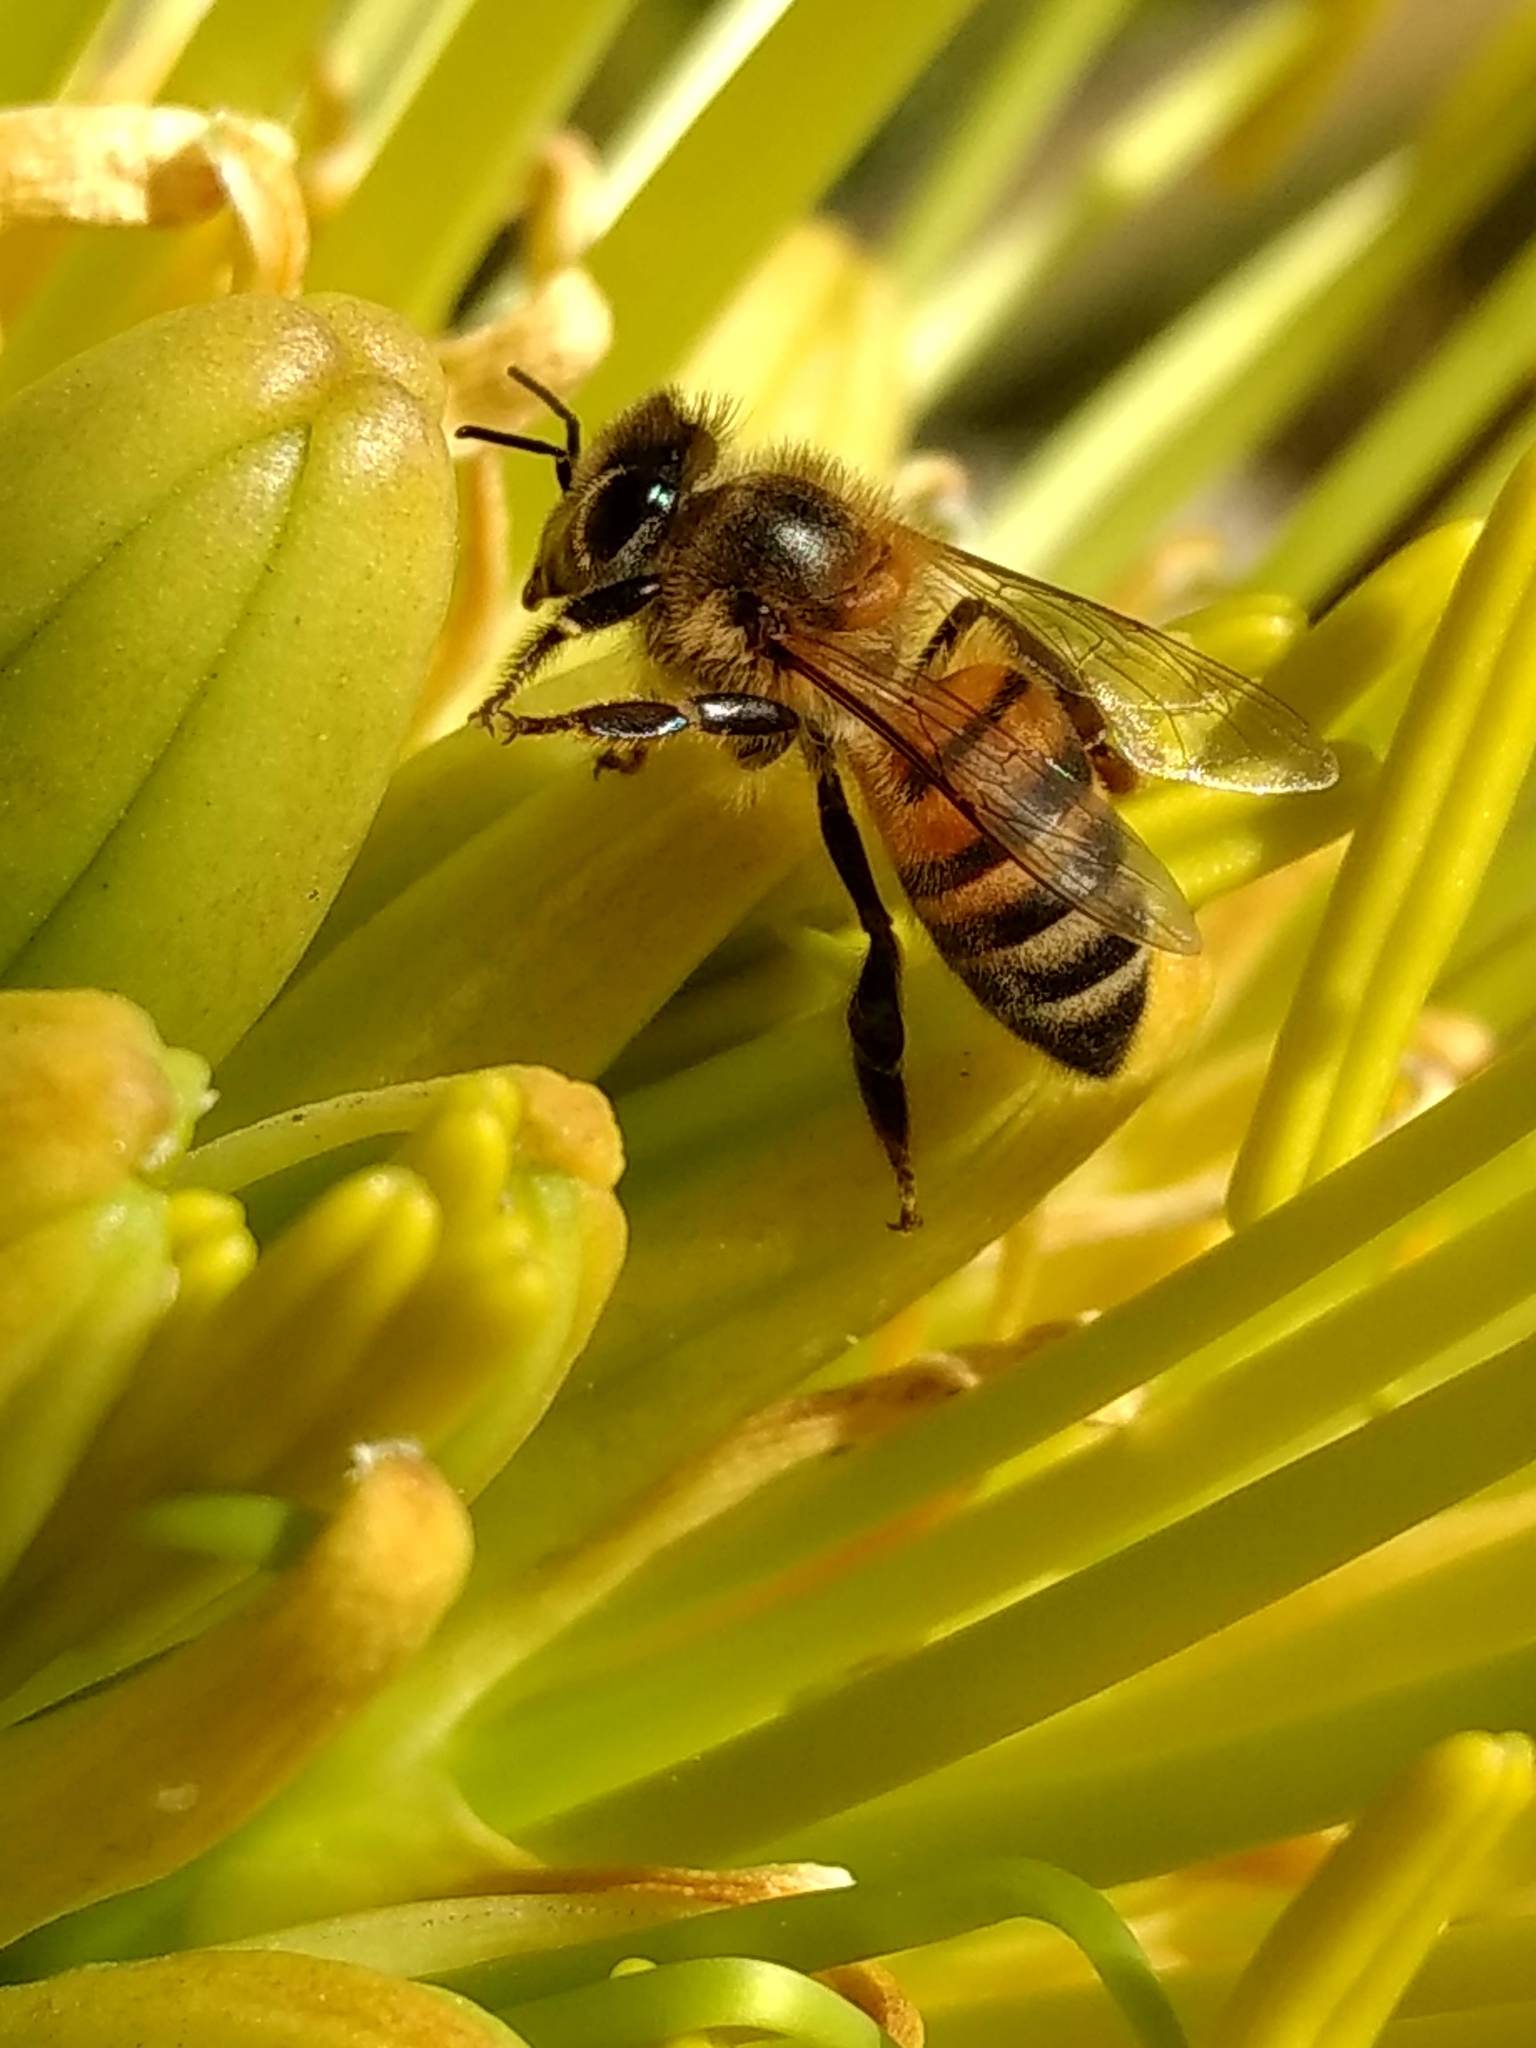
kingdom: Animalia
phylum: Arthropoda
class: Insecta
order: Hymenoptera
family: Apidae
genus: Apis
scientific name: Apis mellifera
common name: Honey bee
